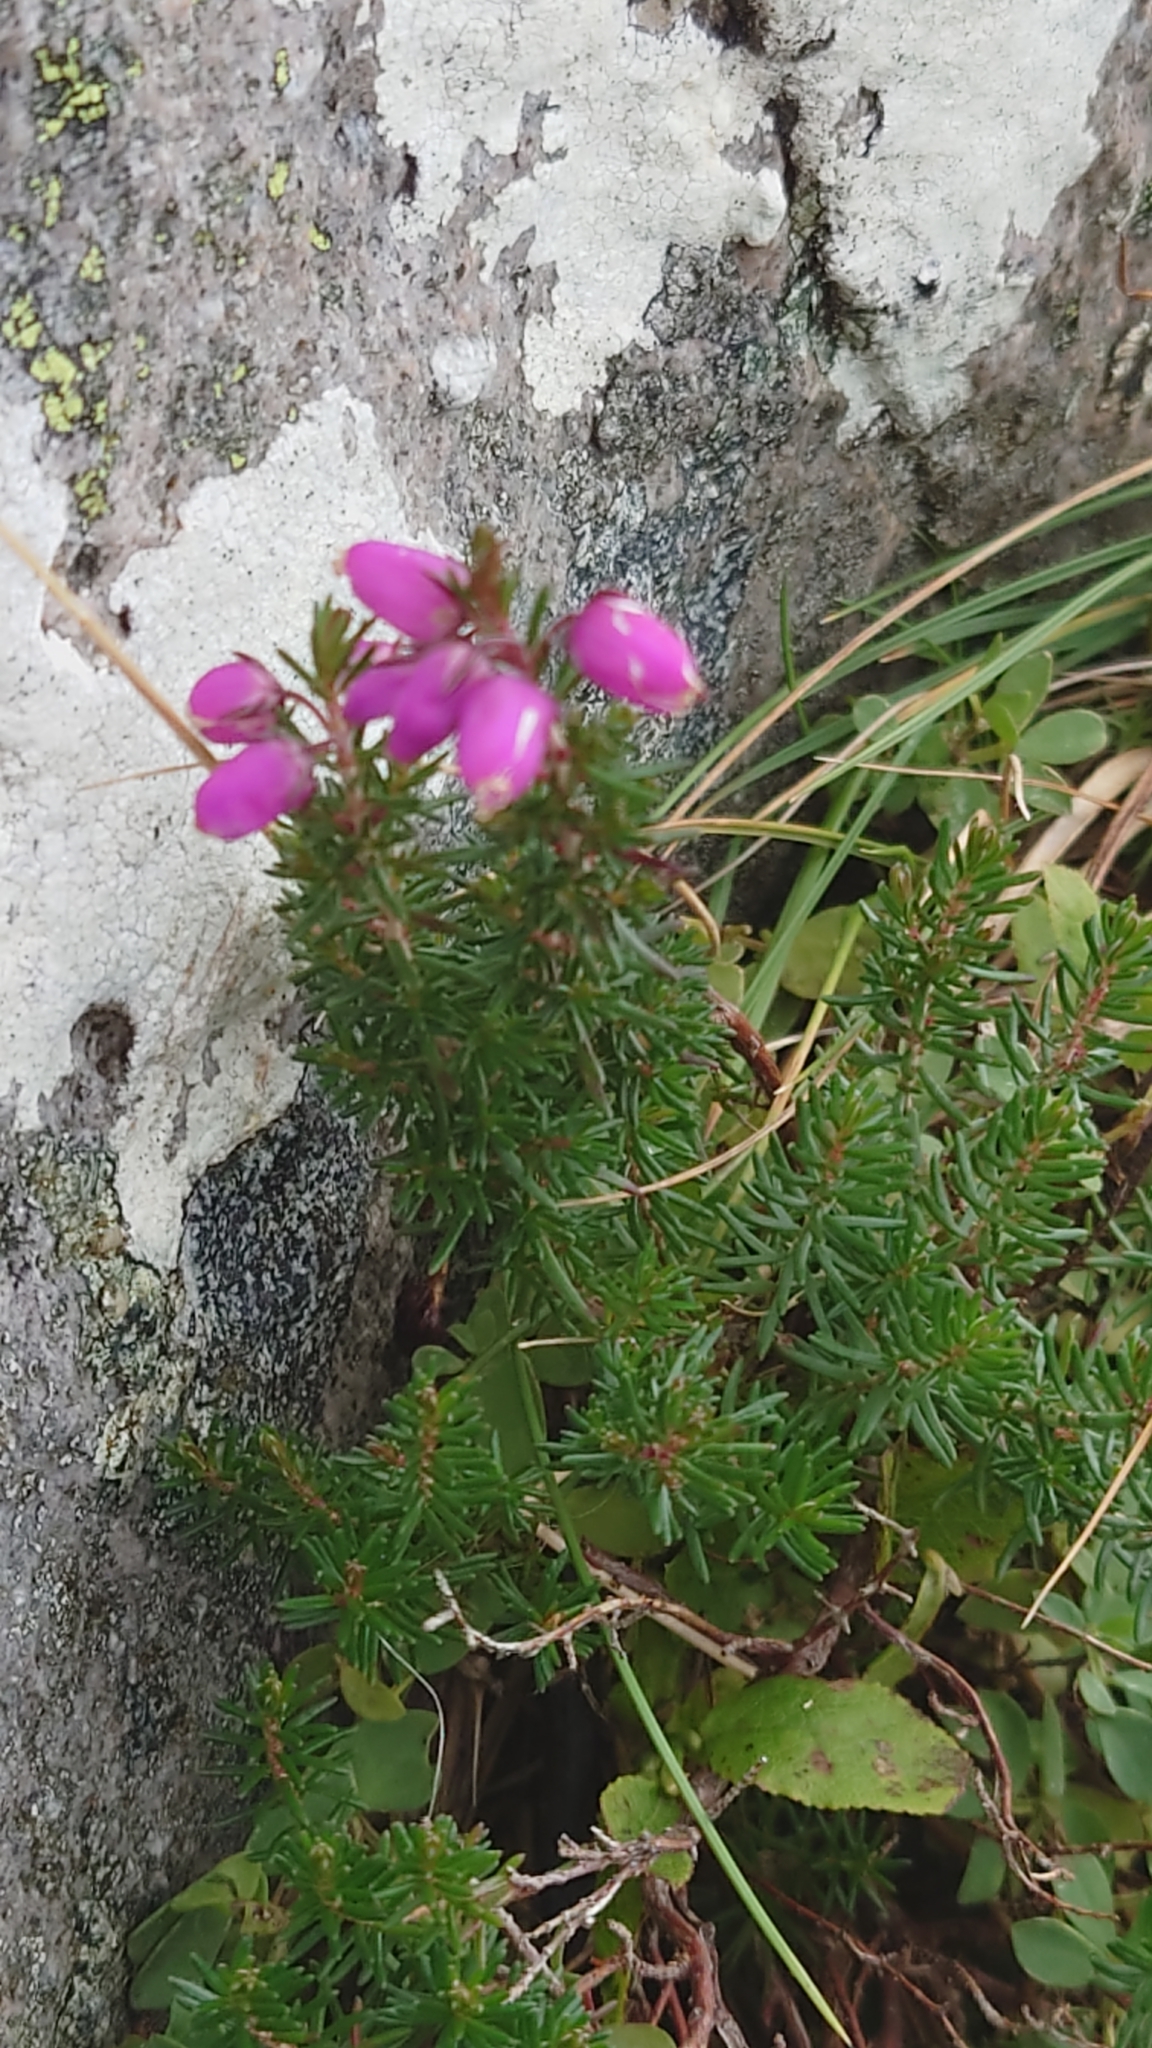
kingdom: Plantae
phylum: Tracheophyta
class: Magnoliopsida
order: Ericales
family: Ericaceae
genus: Erica
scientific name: Erica cinerea
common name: Bell heather
